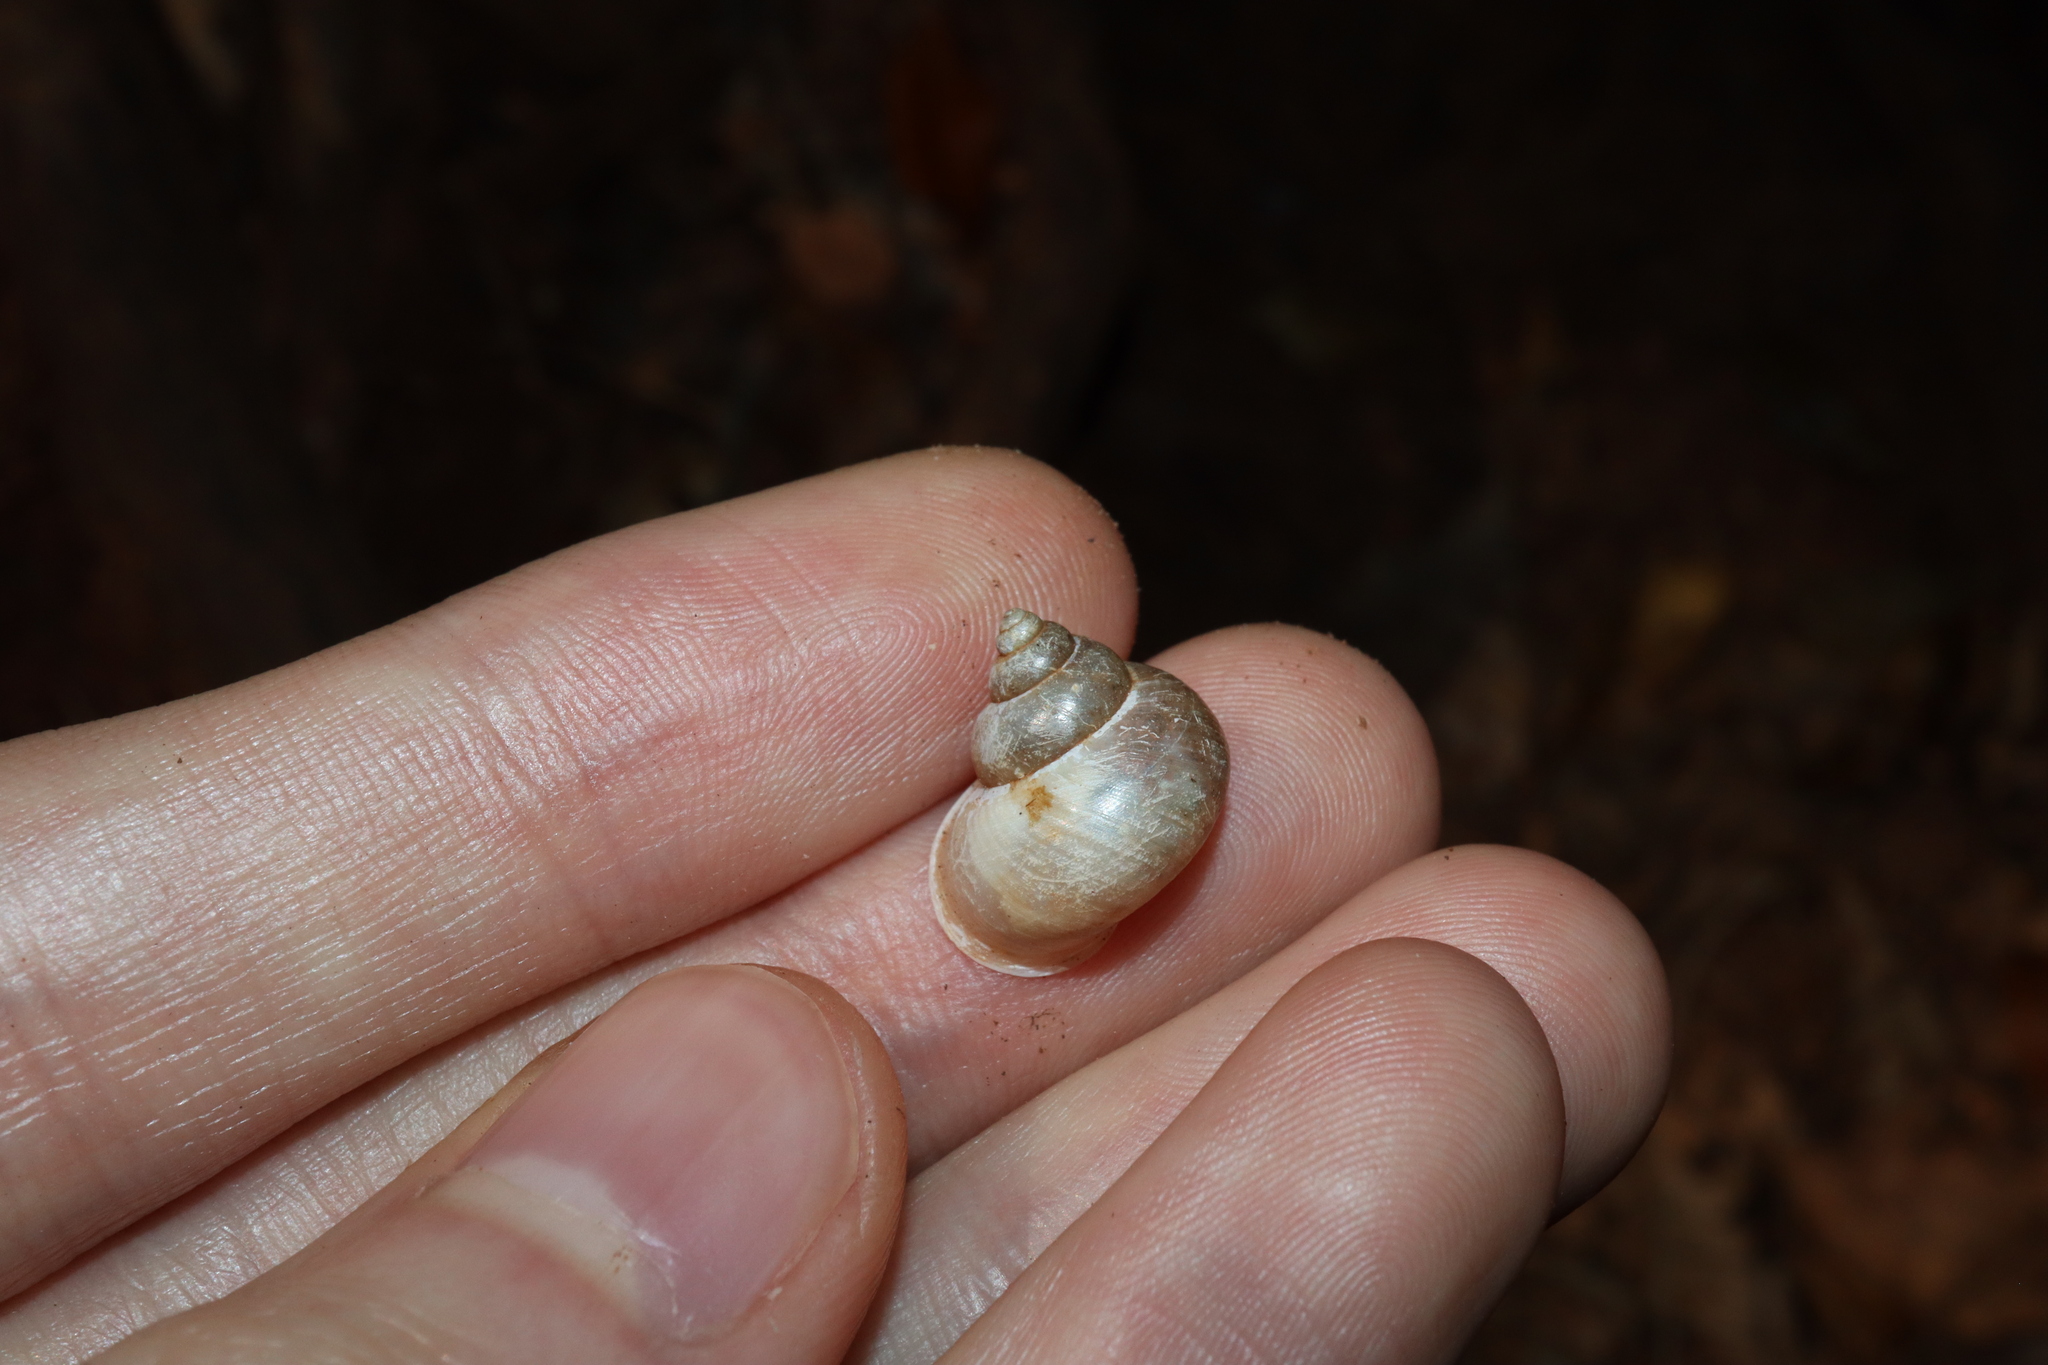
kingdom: Animalia
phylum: Mollusca
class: Gastropoda
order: Architaenioglossa
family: Cyclophoridae
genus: Leptopoma
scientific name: Leptopoma perlucidum
